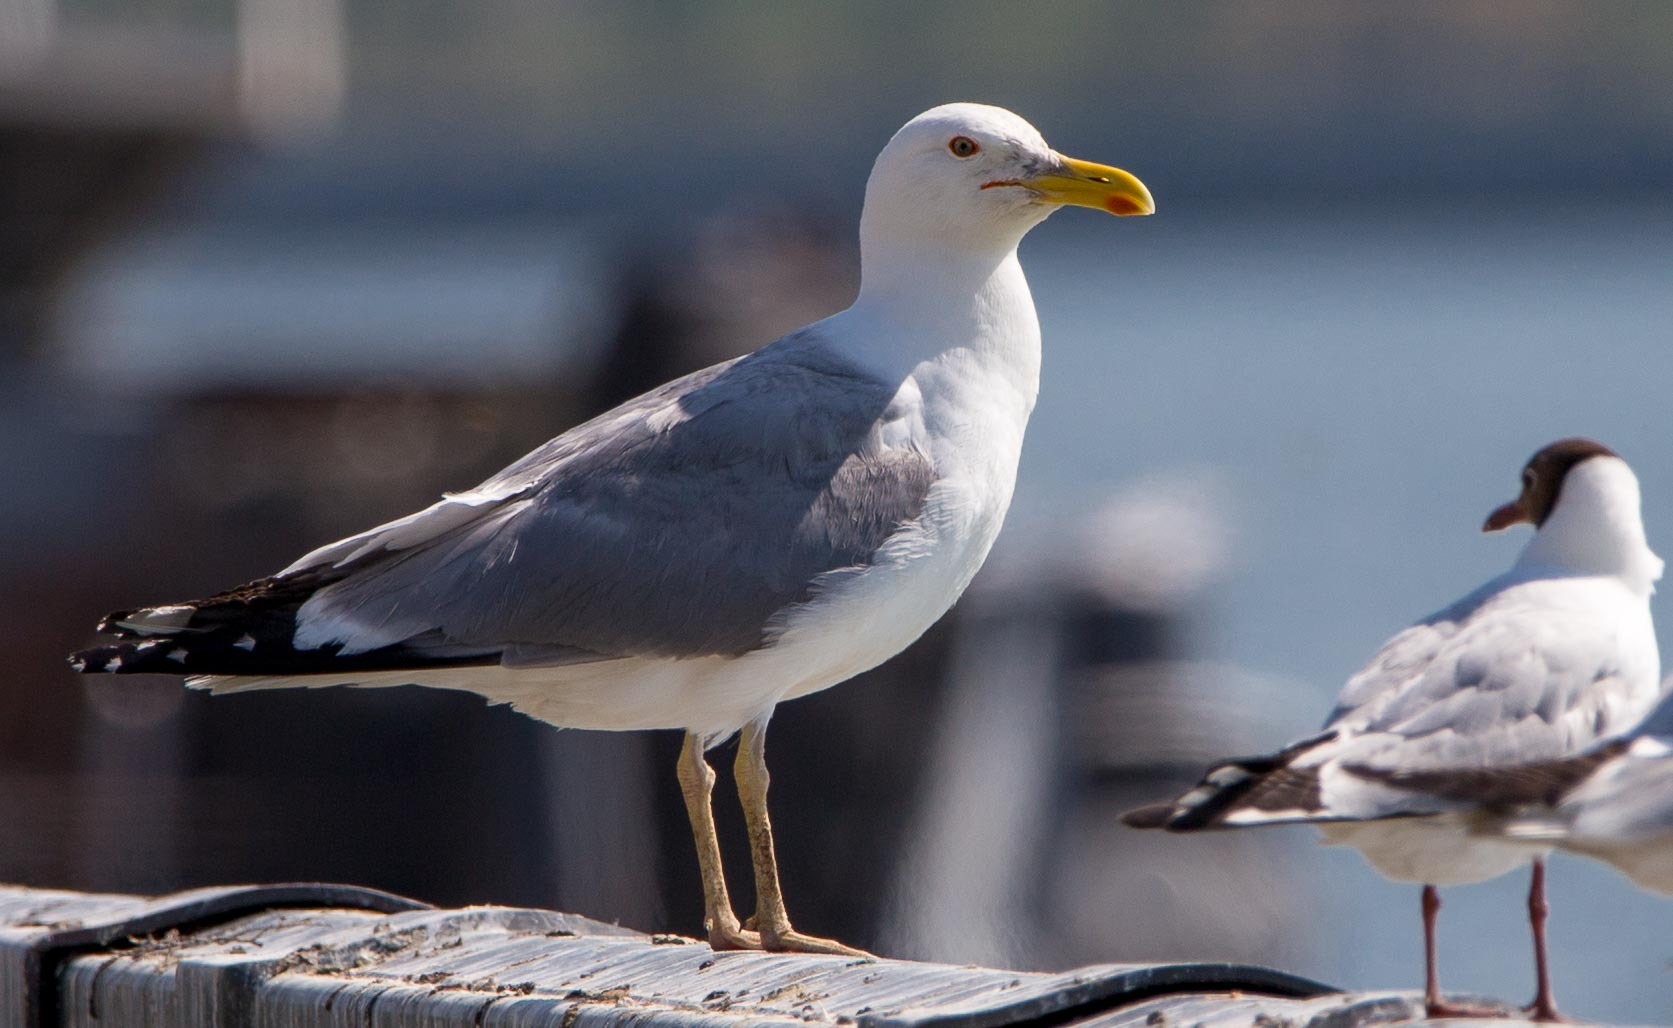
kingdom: Animalia
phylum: Chordata
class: Aves
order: Charadriiformes
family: Laridae
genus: Larus
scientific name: Larus cachinnans
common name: Caspian gull
